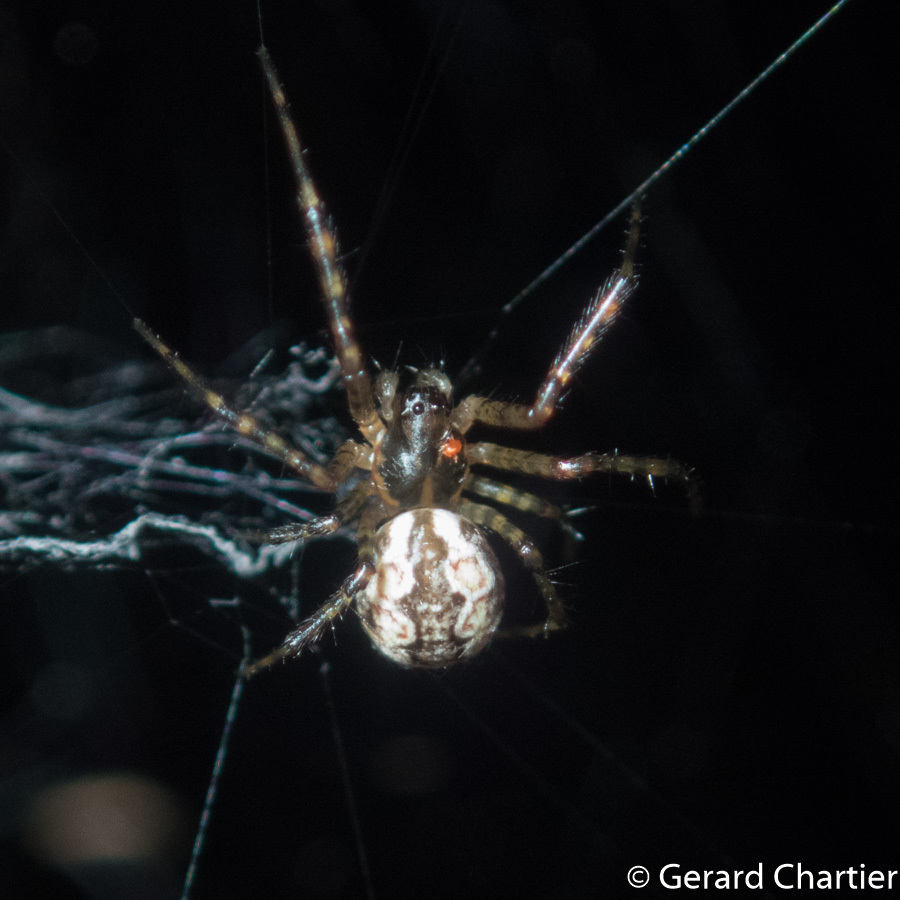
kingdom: Animalia
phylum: Arthropoda
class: Arachnida
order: Araneae
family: Araneidae
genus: Nephilengys
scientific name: Nephilengys malabarensis
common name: Asian hermit spider
